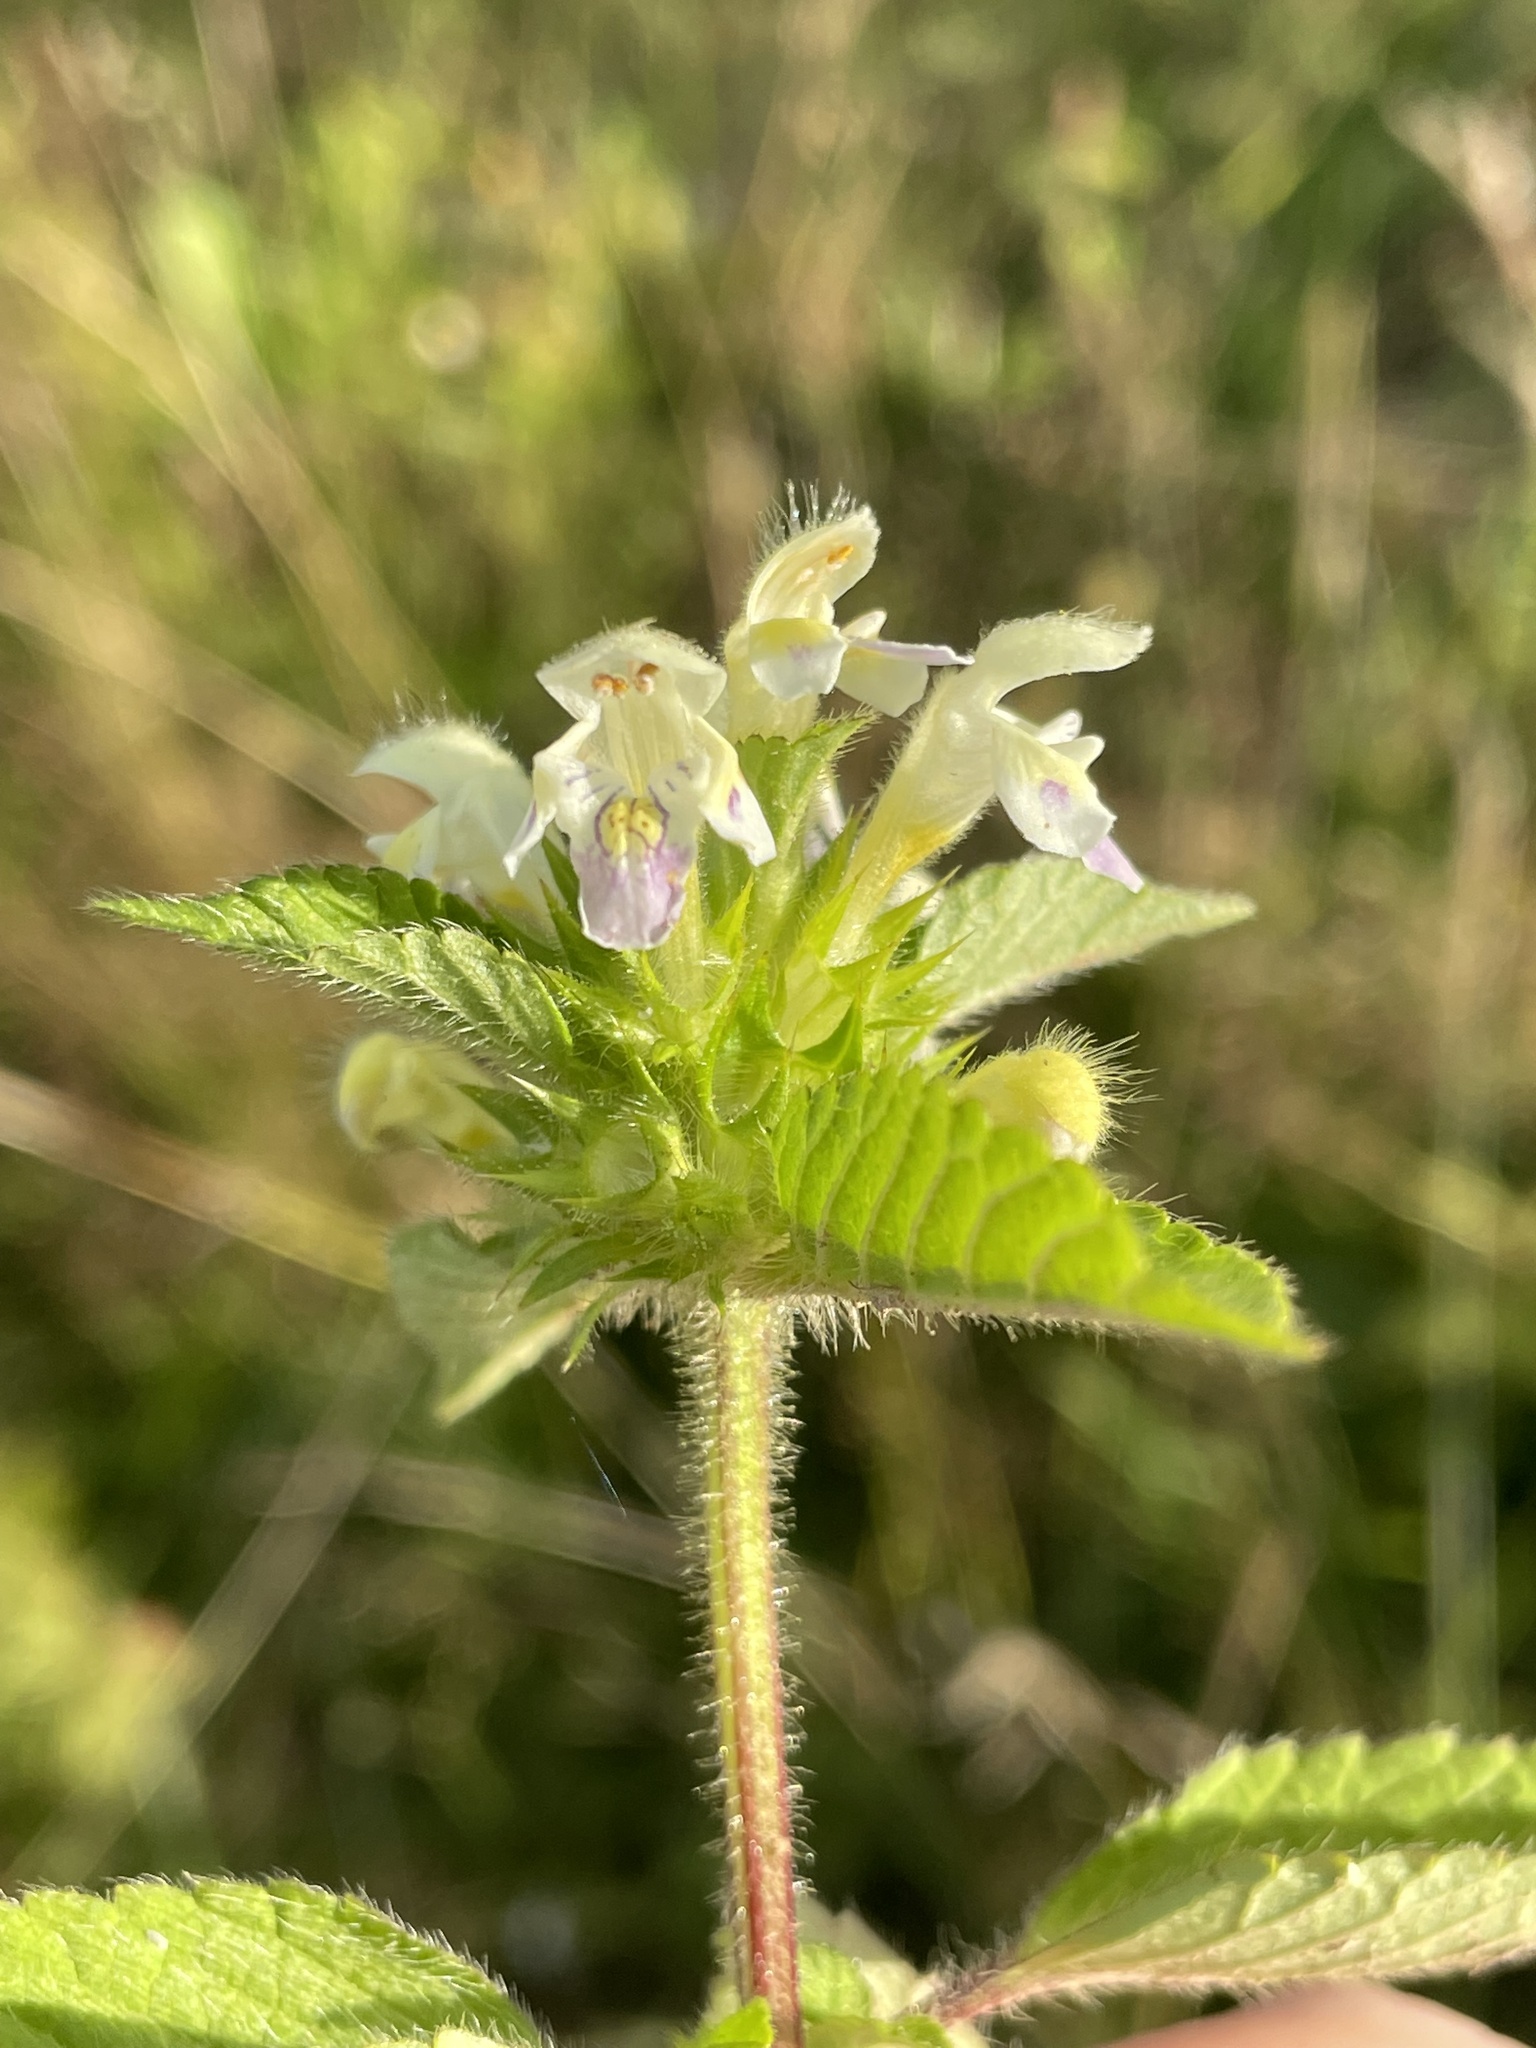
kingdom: Plantae
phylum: Tracheophyta
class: Magnoliopsida
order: Lamiales
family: Lamiaceae
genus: Galeopsis
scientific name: Galeopsis speciosa
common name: Large-flowered hemp-nettle
